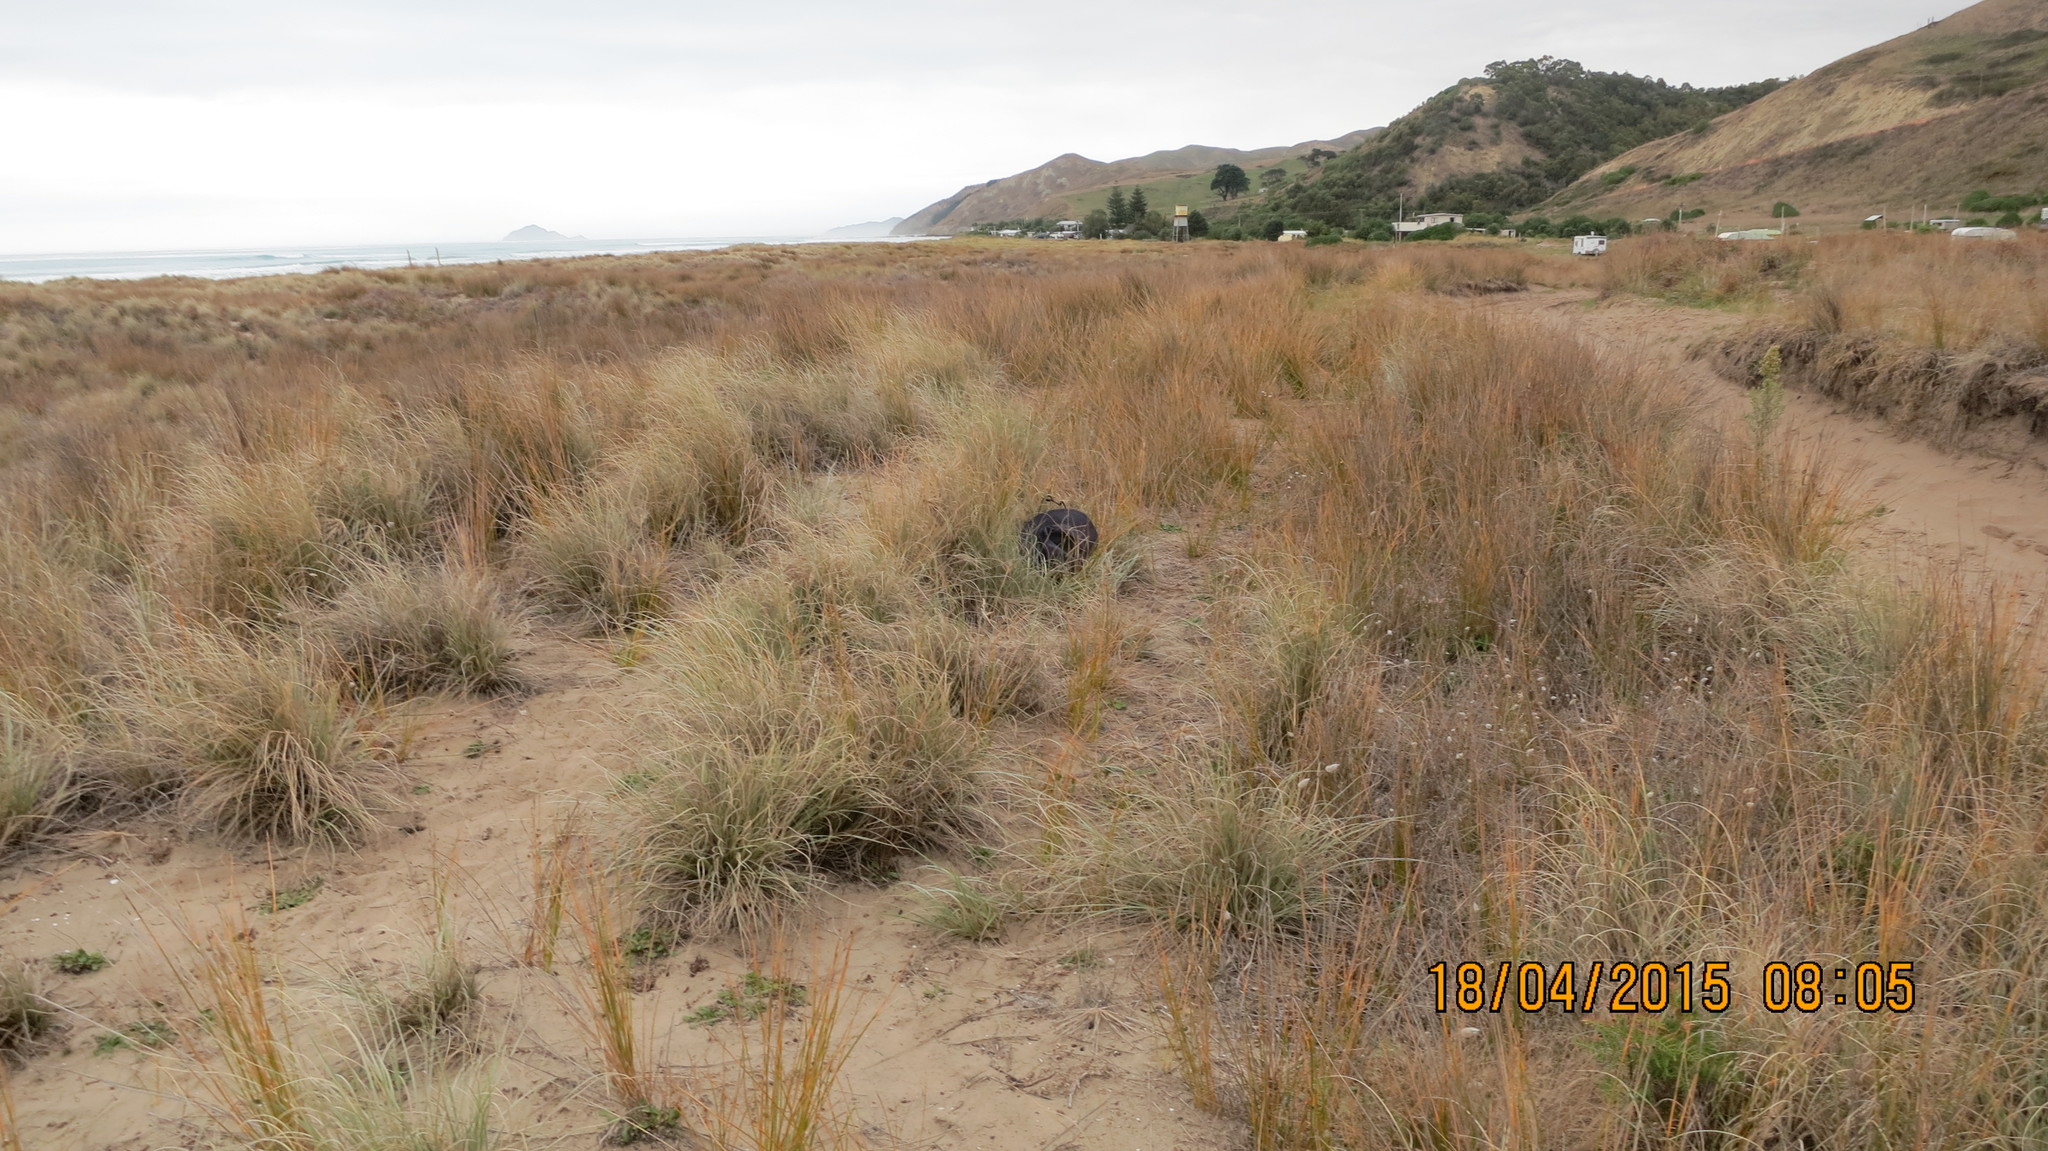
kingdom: Animalia
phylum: Arthropoda
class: Insecta
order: Hemiptera
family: Cicadellidae
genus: Euacanthella
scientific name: Euacanthella palustris
